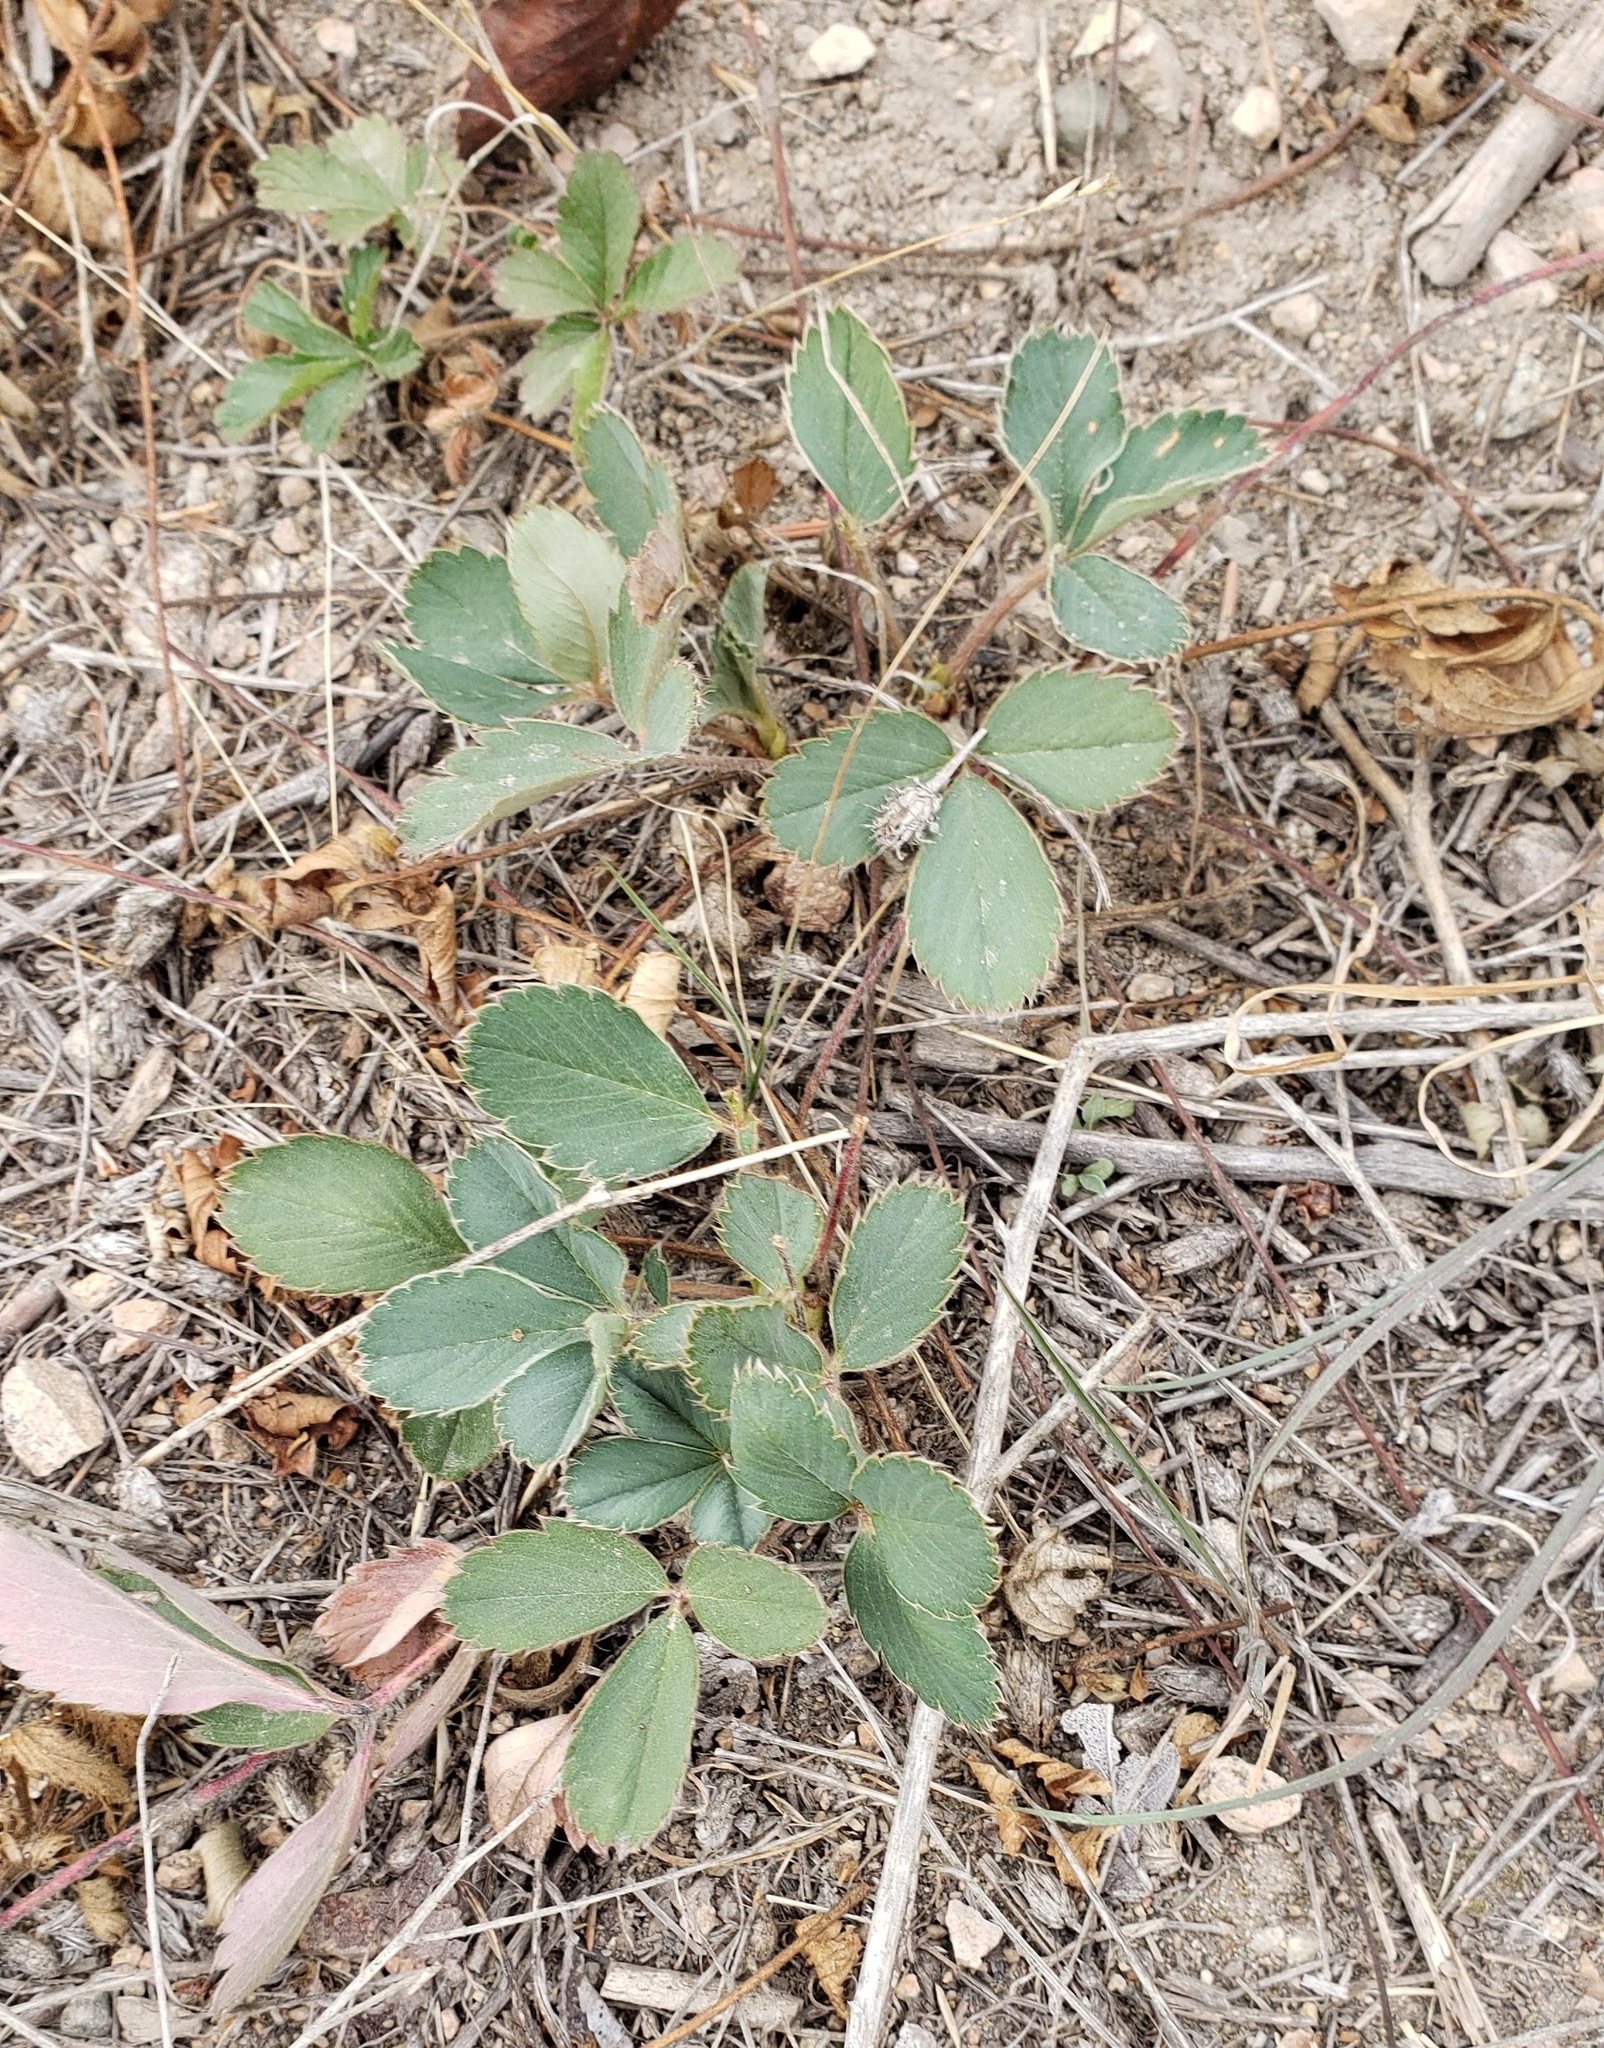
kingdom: Plantae
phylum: Tracheophyta
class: Magnoliopsida
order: Rosales
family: Rosaceae
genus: Fragaria
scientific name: Fragaria virginiana
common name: Thickleaved wild strawberry
